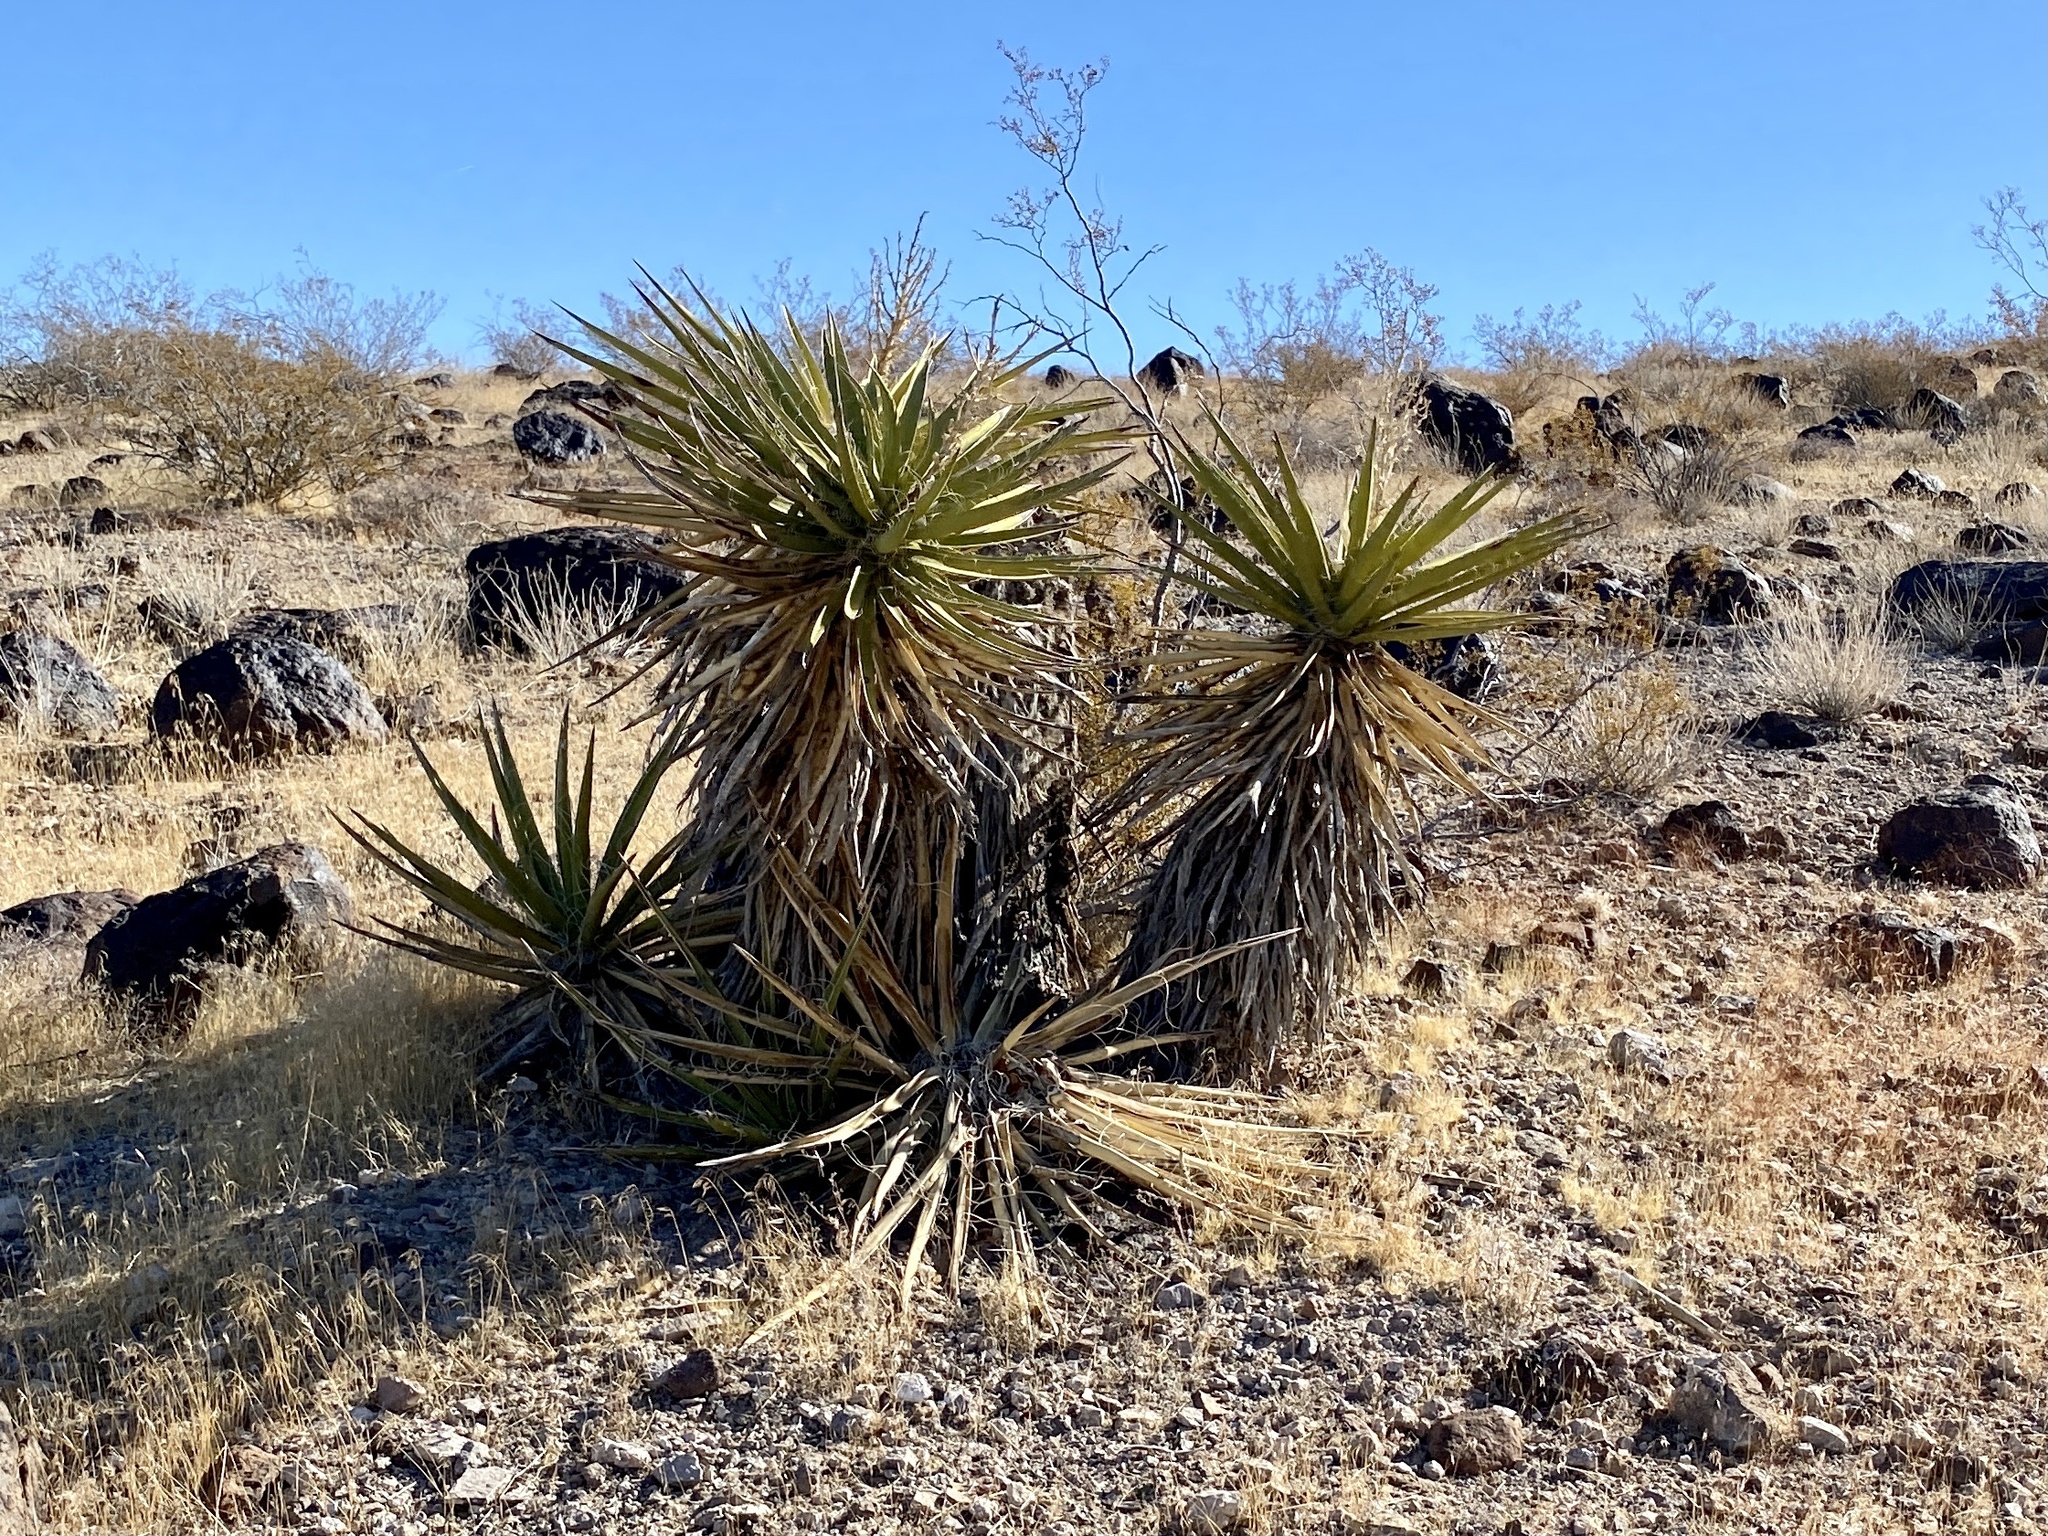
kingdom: Plantae
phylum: Tracheophyta
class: Liliopsida
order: Asparagales
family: Asparagaceae
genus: Yucca
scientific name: Yucca schidigera
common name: Mojave yucca
